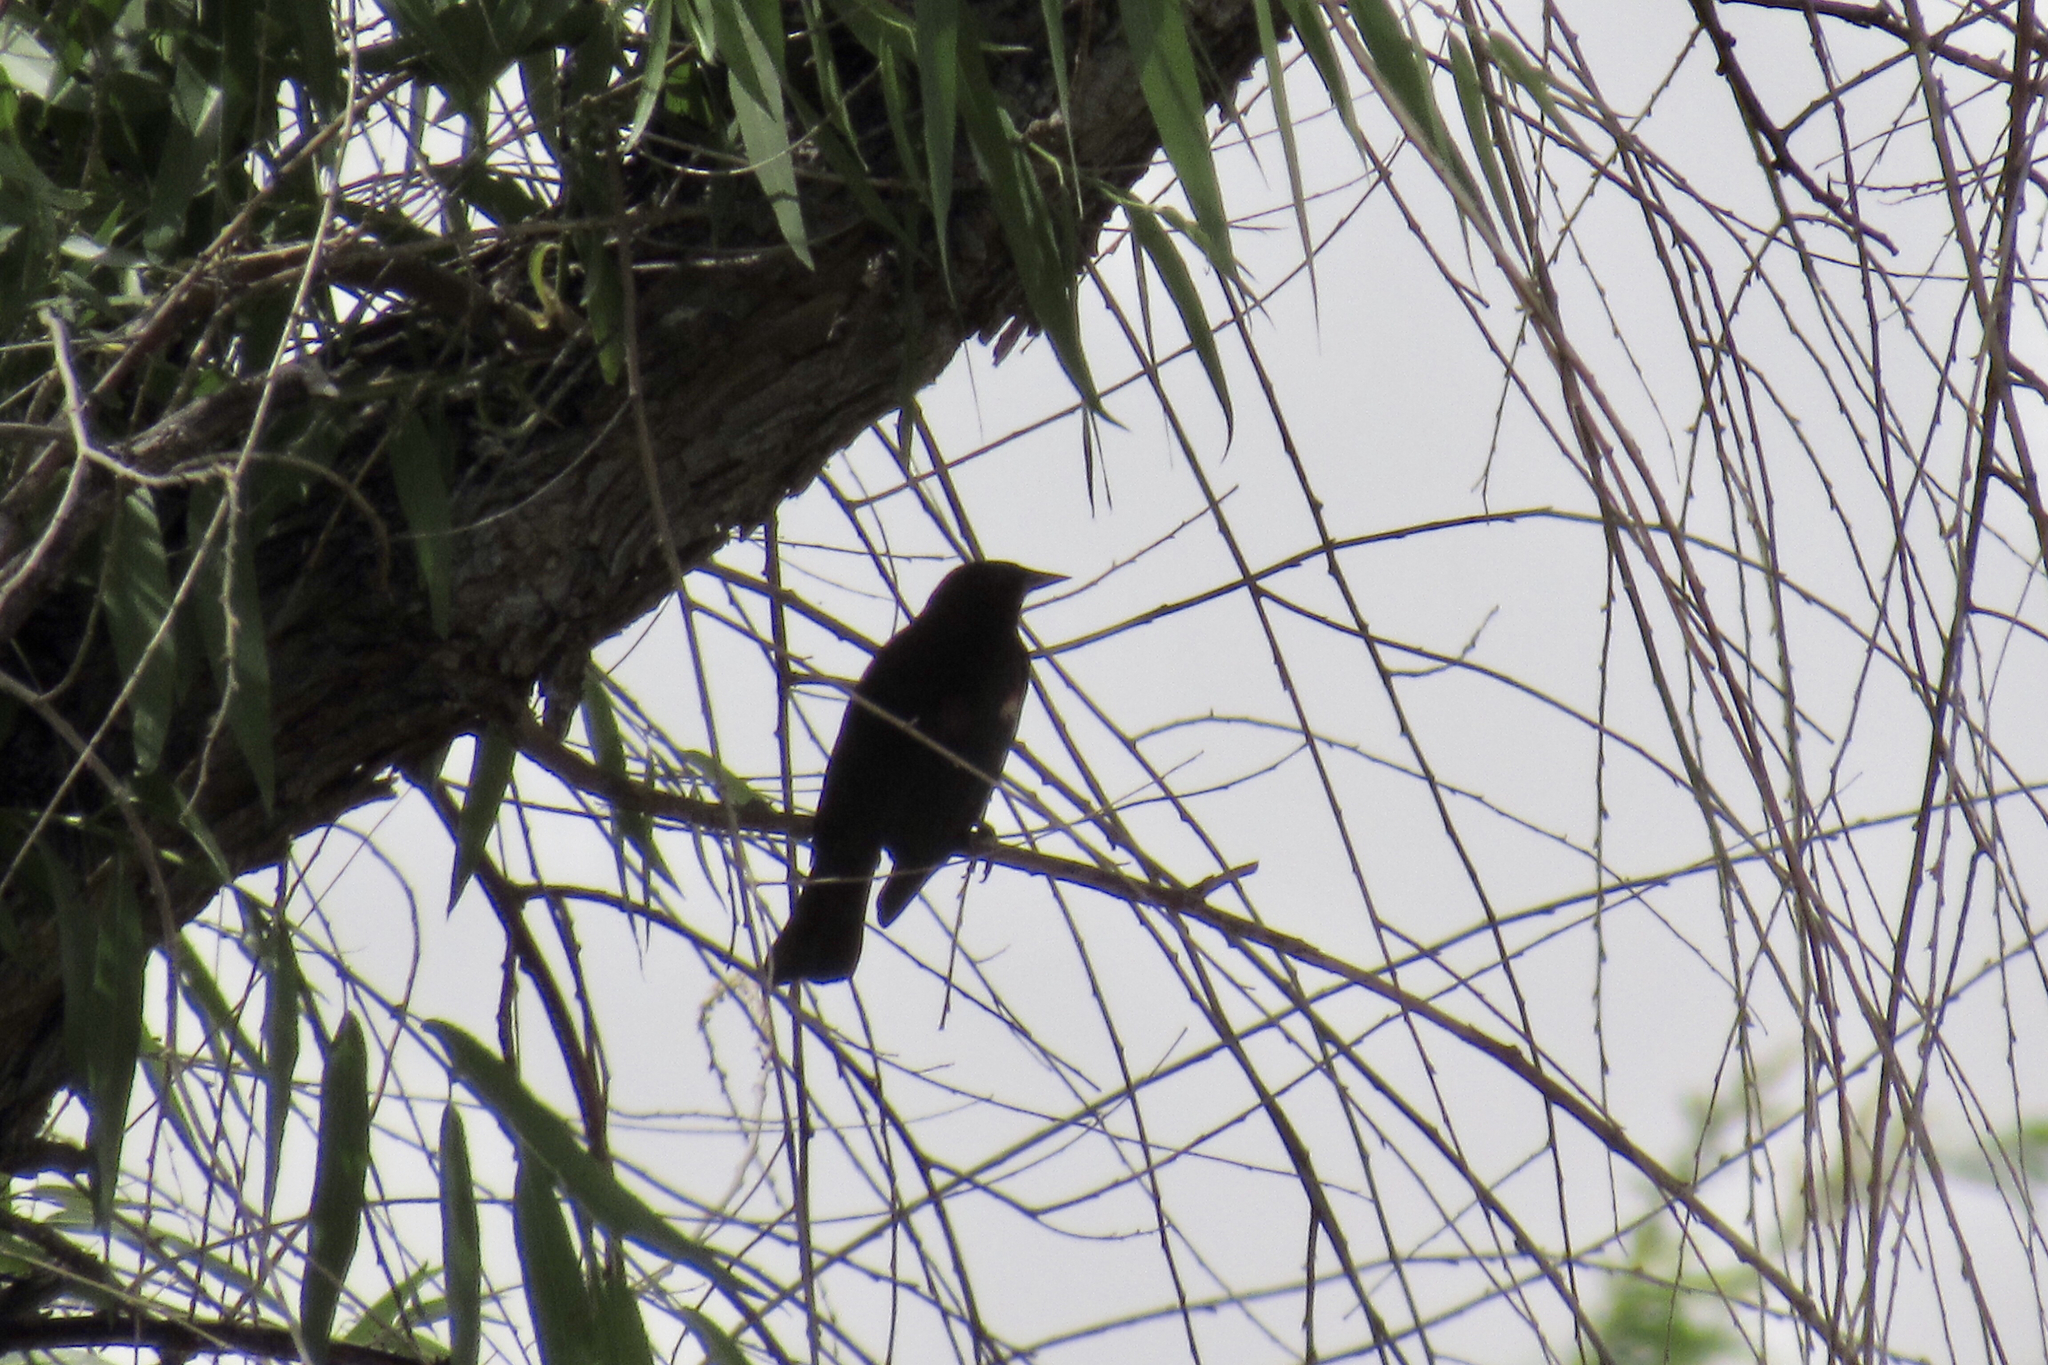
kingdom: Animalia
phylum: Chordata
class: Aves
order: Passeriformes
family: Icteridae
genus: Agelaius
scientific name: Agelaius phoeniceus
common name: Red-winged blackbird
